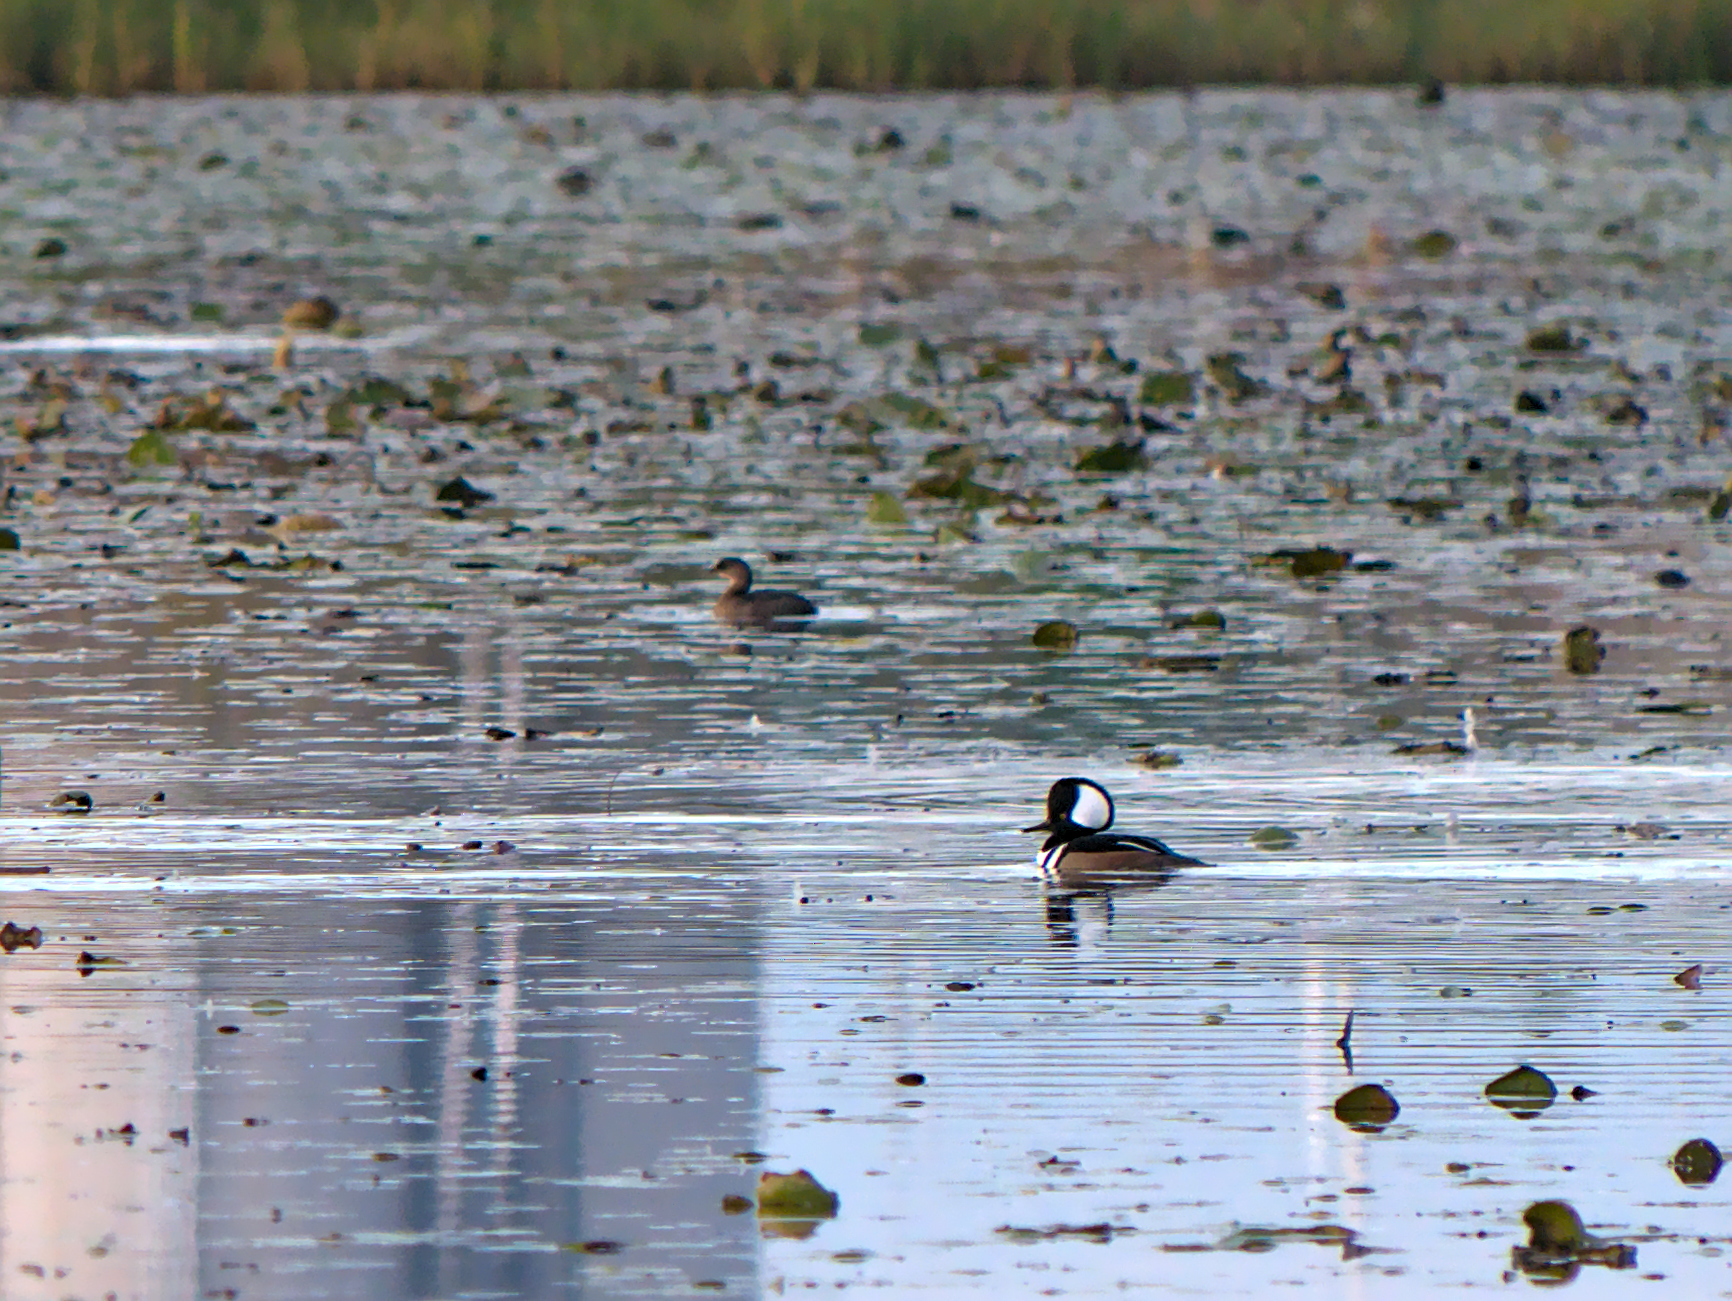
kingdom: Animalia
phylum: Chordata
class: Aves
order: Anseriformes
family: Anatidae
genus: Lophodytes
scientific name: Lophodytes cucullatus
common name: Hooded merganser
